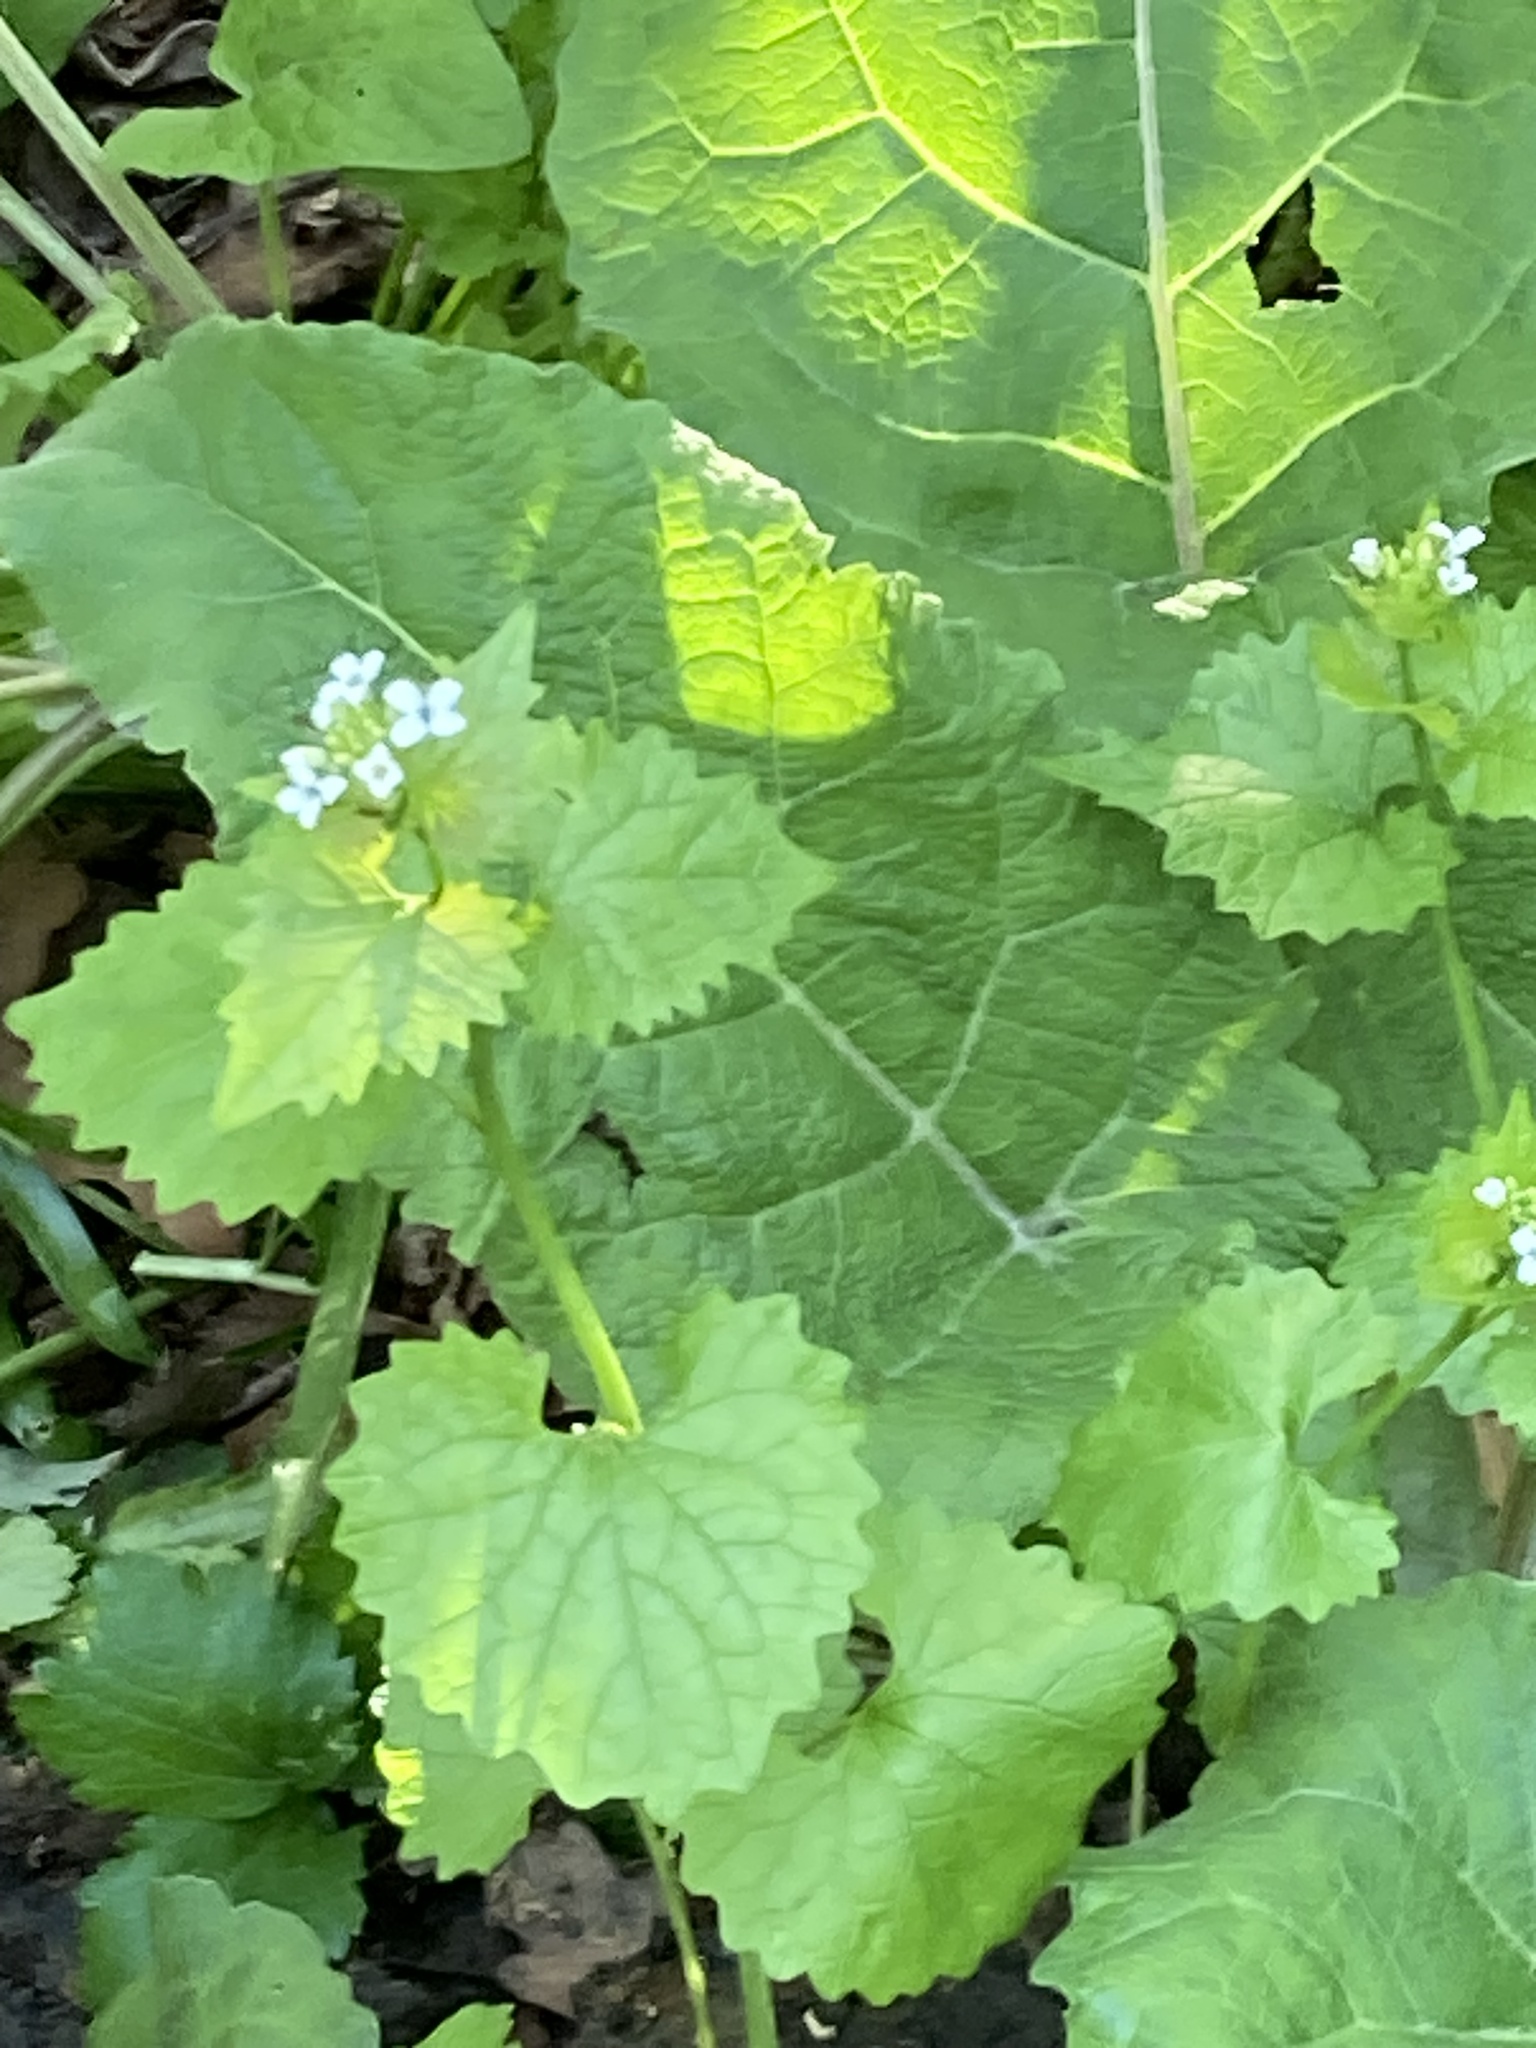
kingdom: Plantae
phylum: Tracheophyta
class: Magnoliopsida
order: Brassicales
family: Brassicaceae
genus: Alliaria
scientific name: Alliaria petiolata
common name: Garlic mustard
